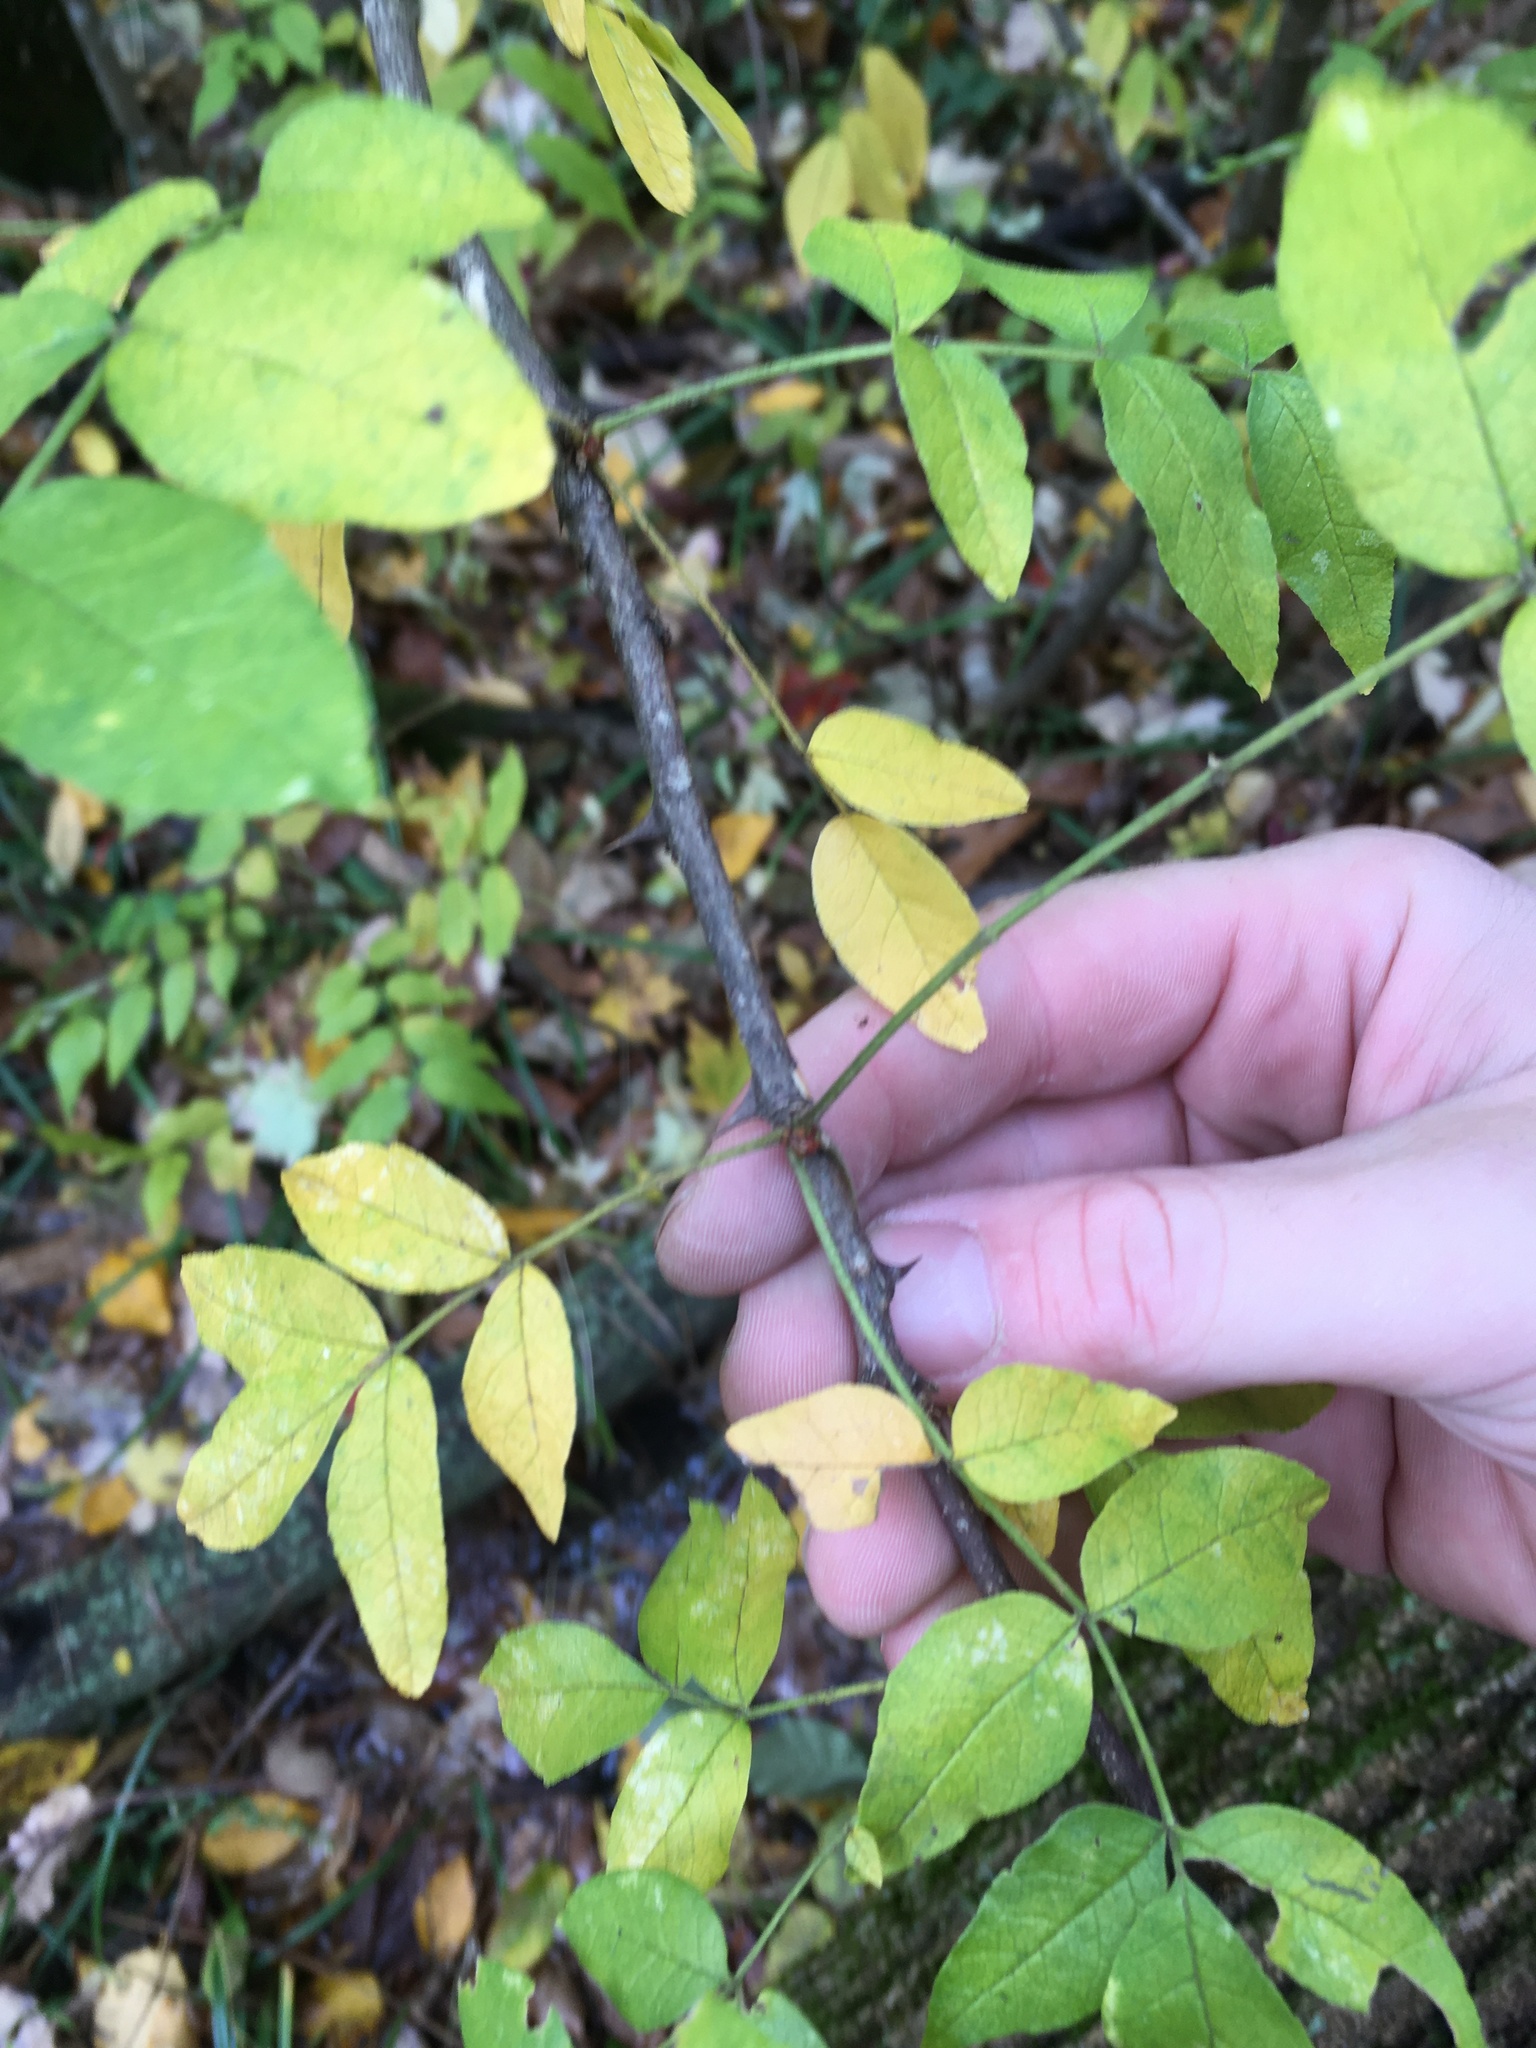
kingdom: Plantae
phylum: Tracheophyta
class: Magnoliopsida
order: Sapindales
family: Rutaceae
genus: Zanthoxylum
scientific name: Zanthoxylum americanum
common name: Northern prickly-ash
